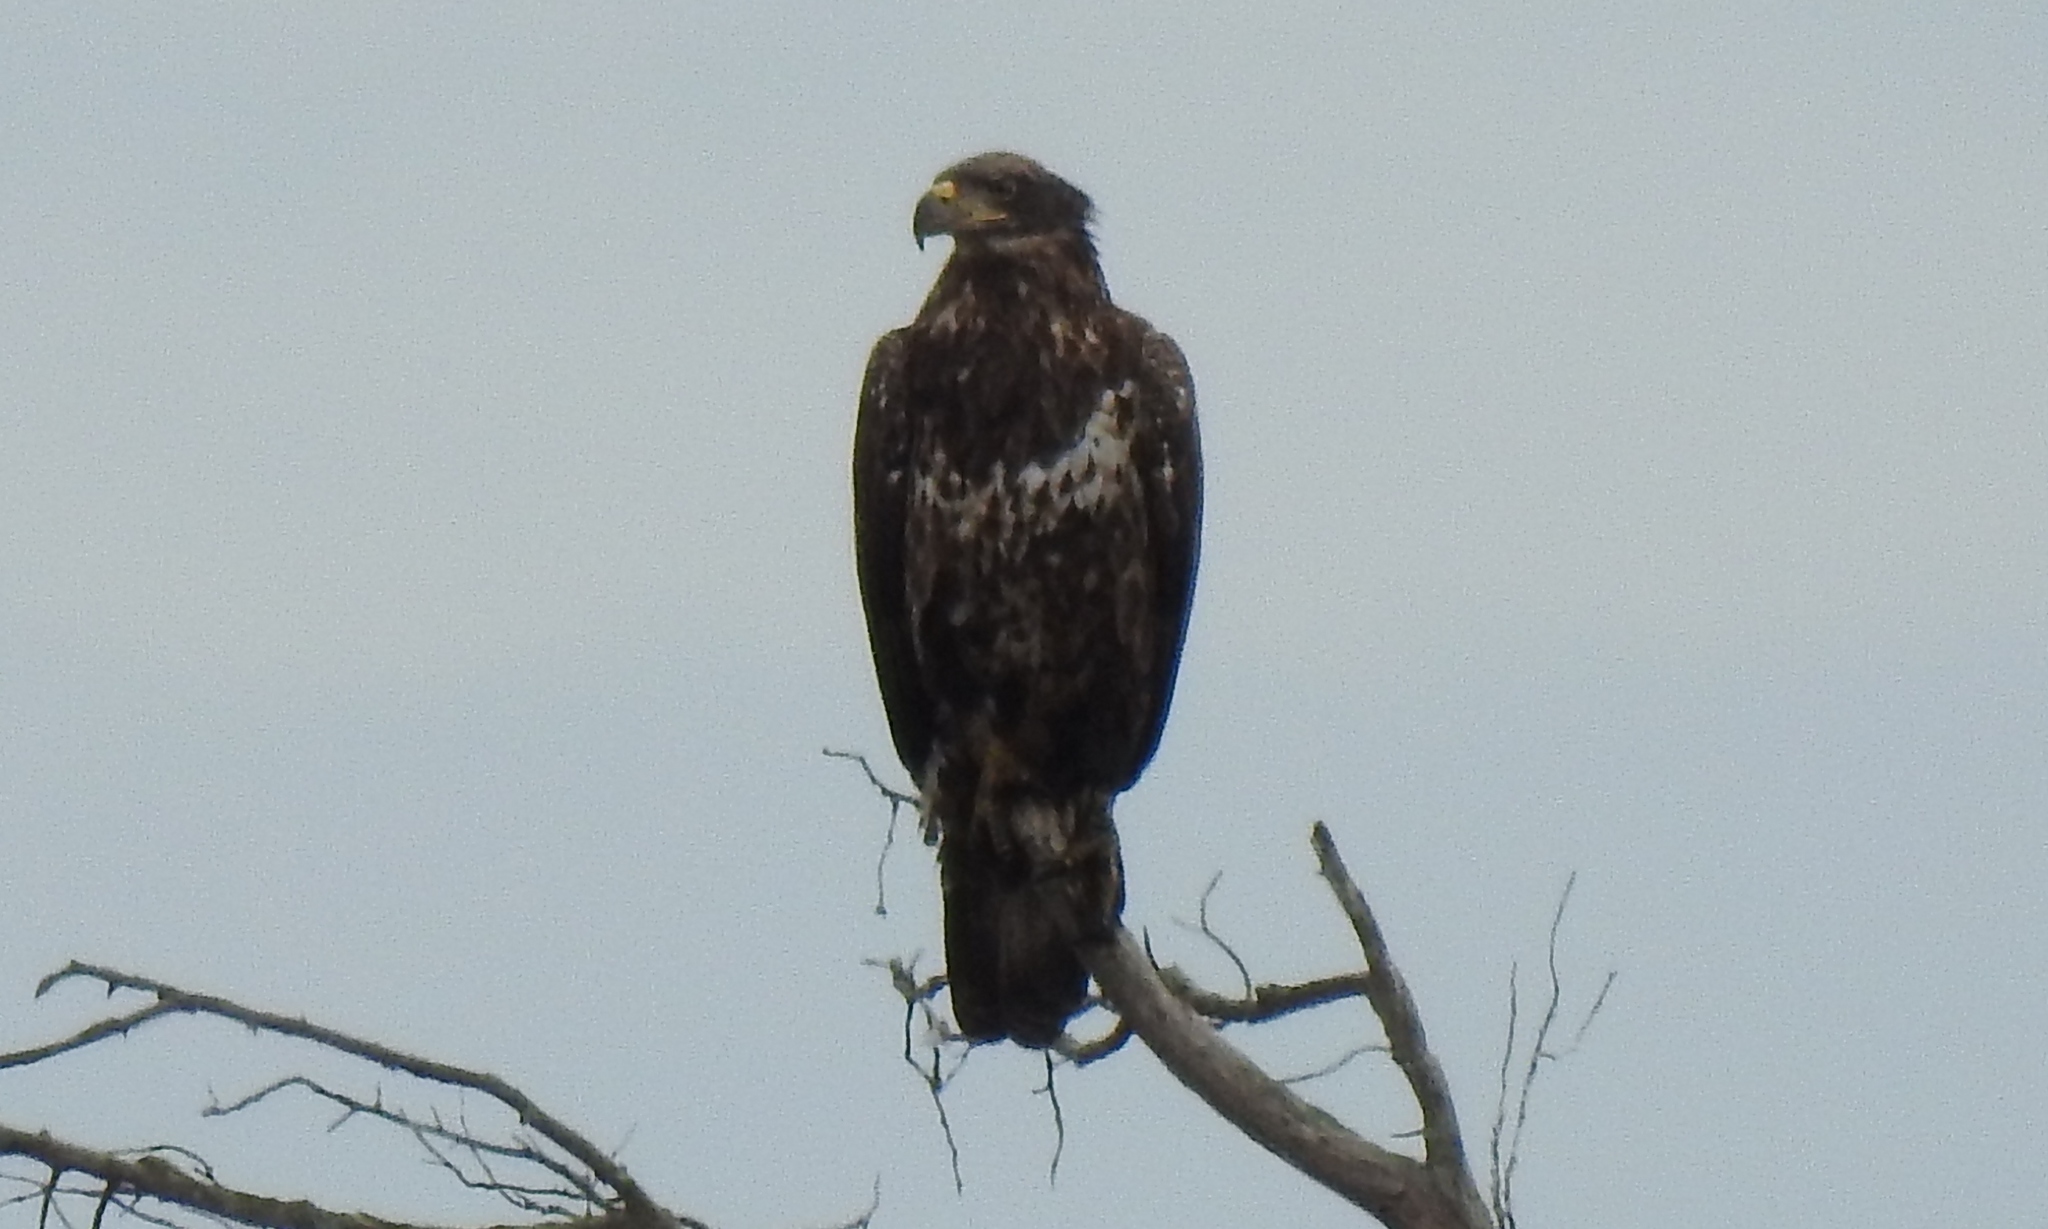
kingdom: Animalia
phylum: Chordata
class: Aves
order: Accipitriformes
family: Accipitridae
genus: Haliaeetus
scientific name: Haliaeetus leucocephalus
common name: Bald eagle
